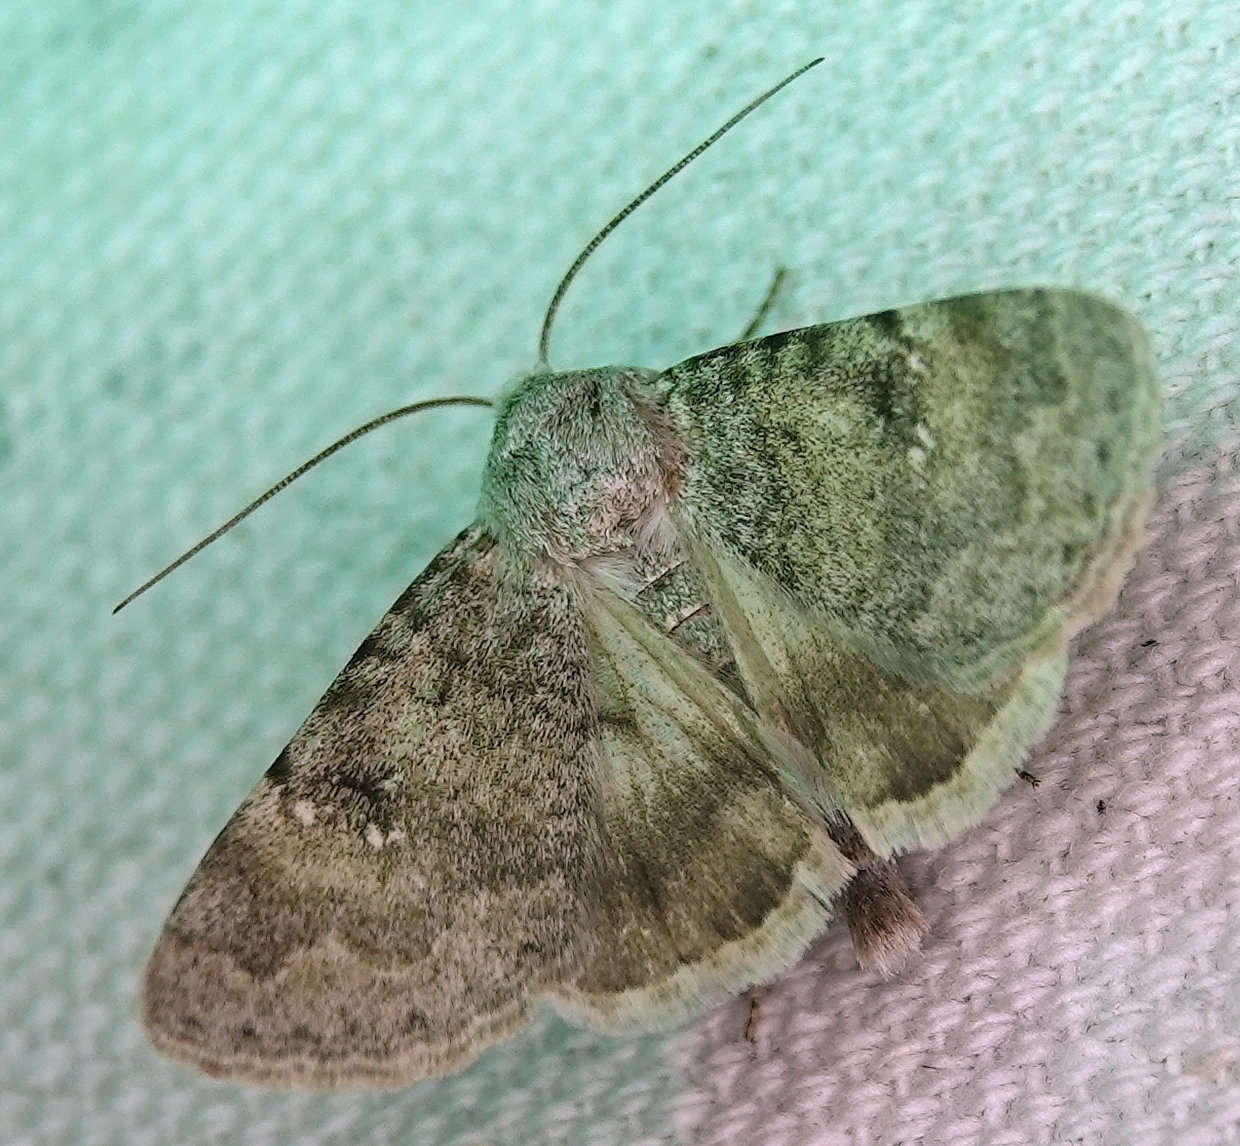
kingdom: Animalia
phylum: Arthropoda
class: Insecta
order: Lepidoptera
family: Erebidae
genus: Drasteria
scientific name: Drasteria inepta
